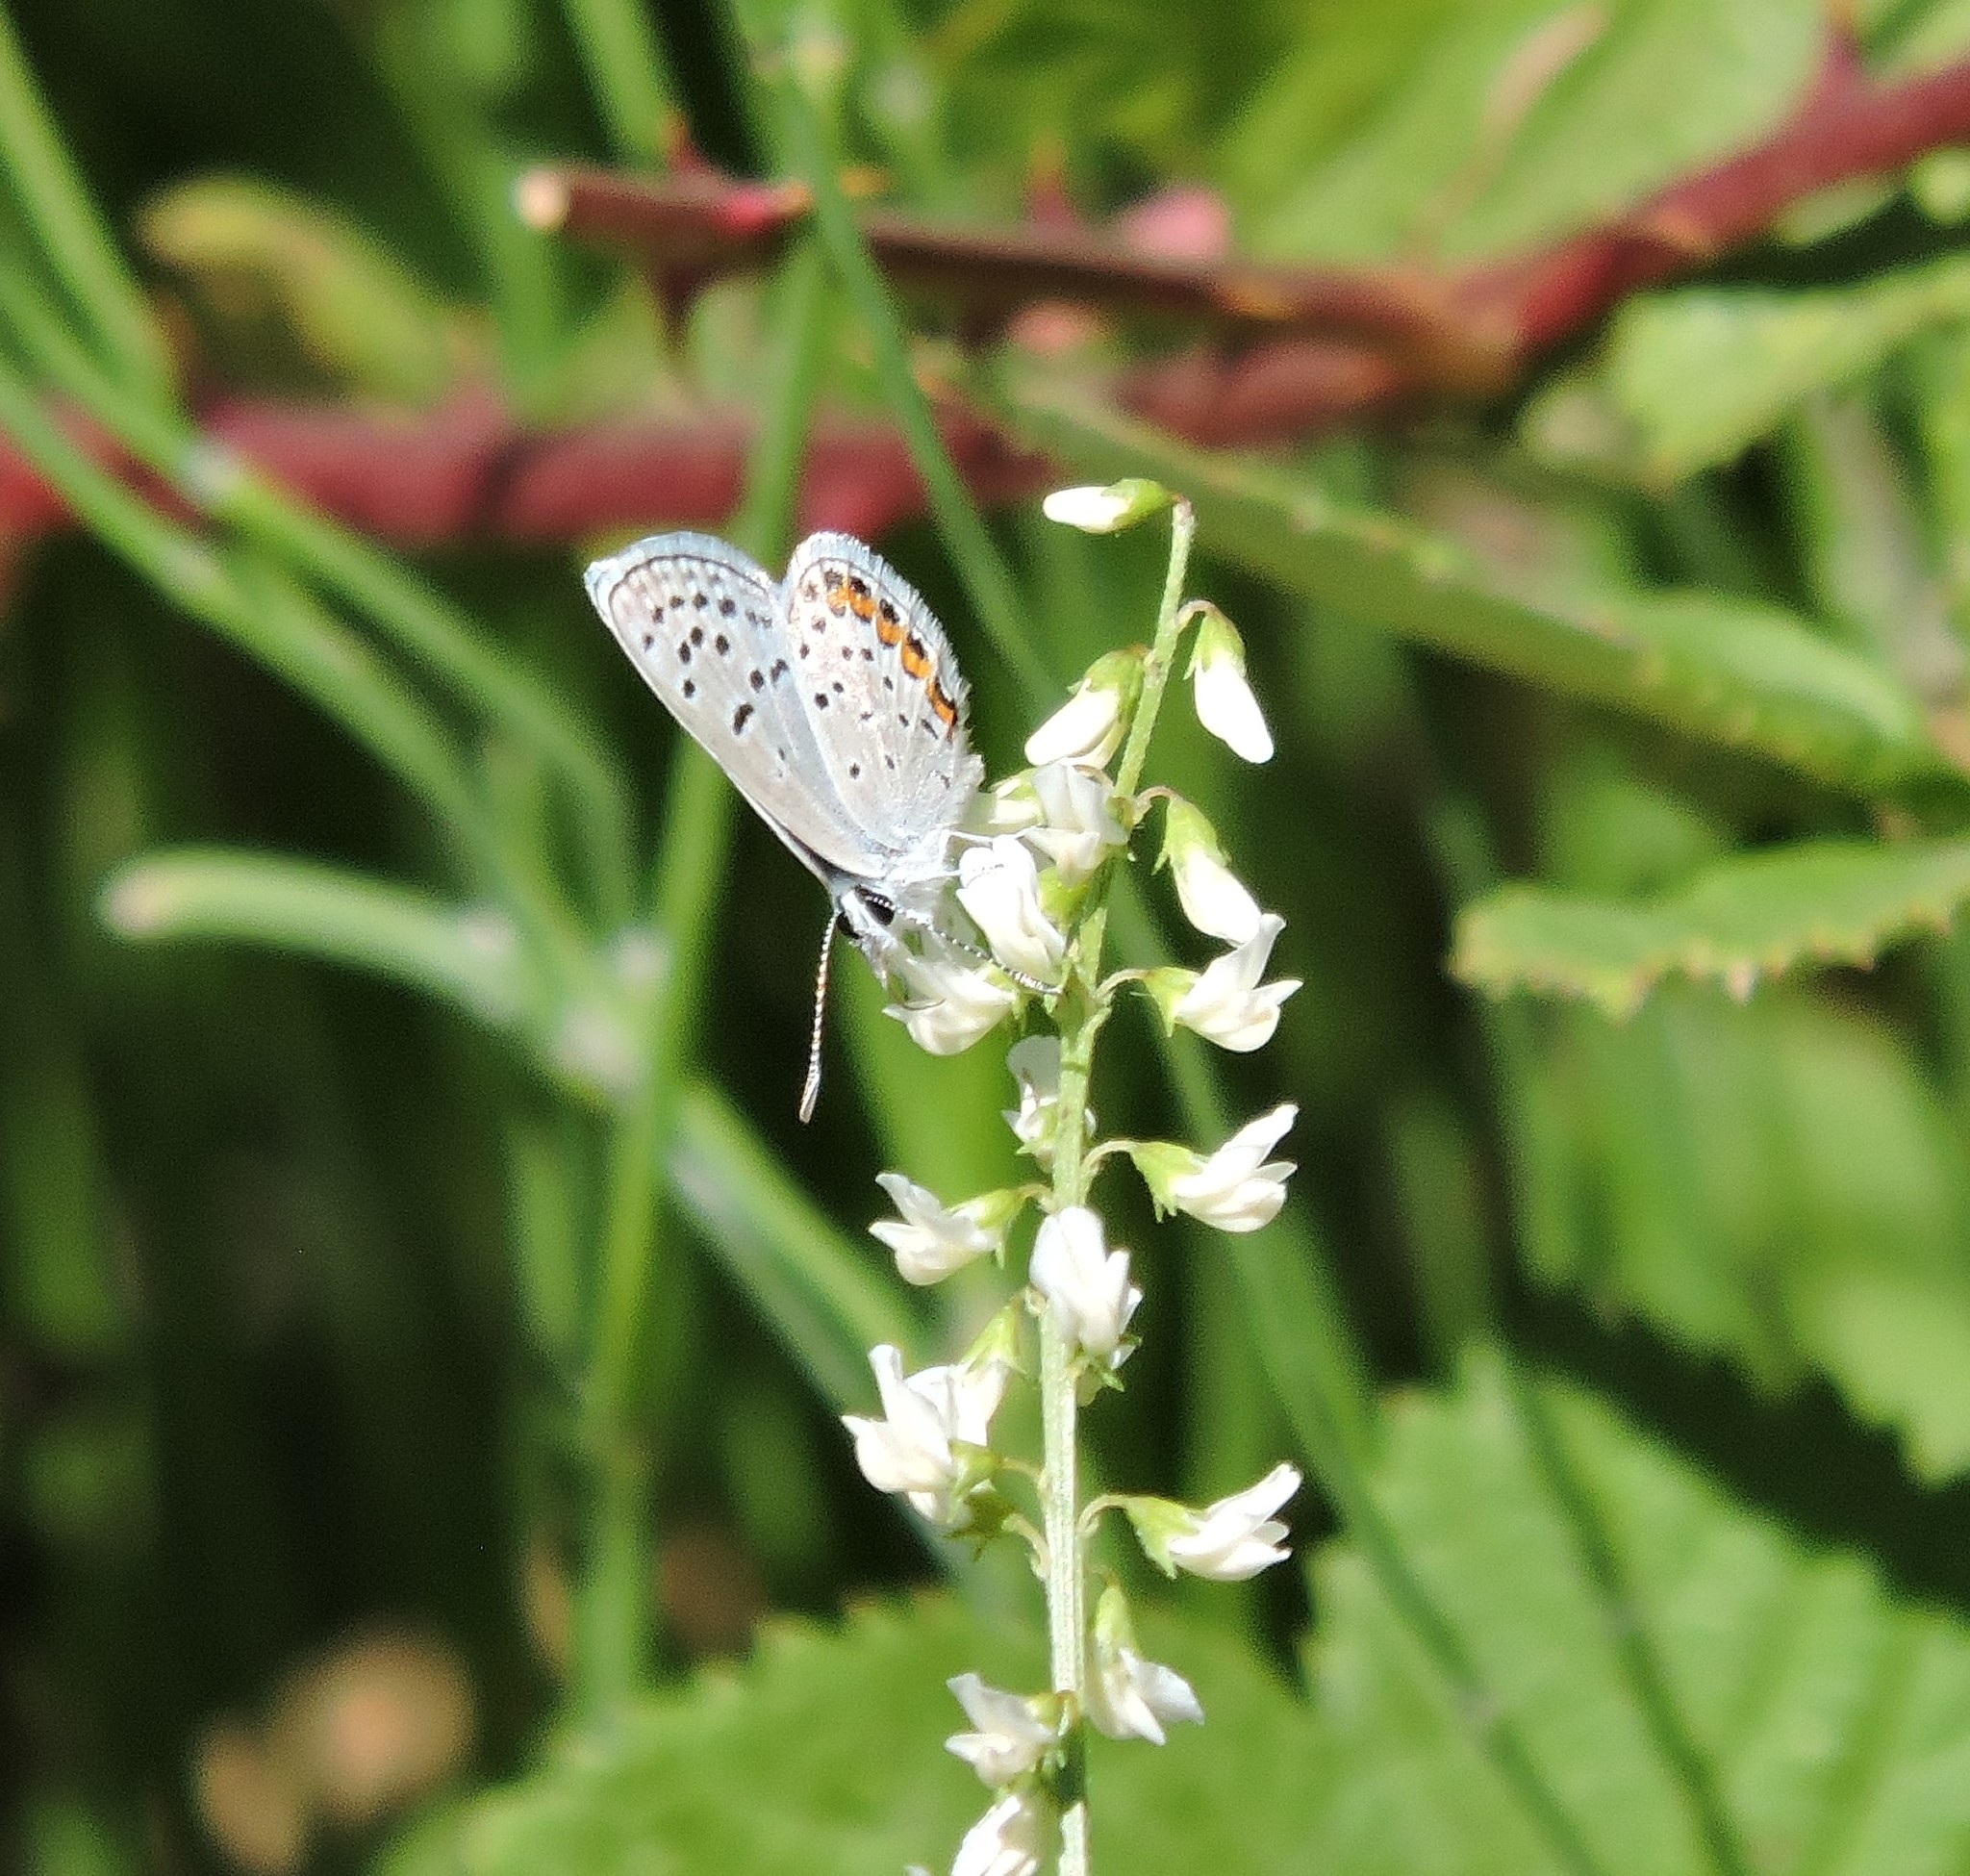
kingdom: Animalia
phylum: Arthropoda
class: Insecta
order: Lepidoptera
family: Lycaenidae
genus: Icaricia
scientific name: Icaricia acmon
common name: Acmon blue
